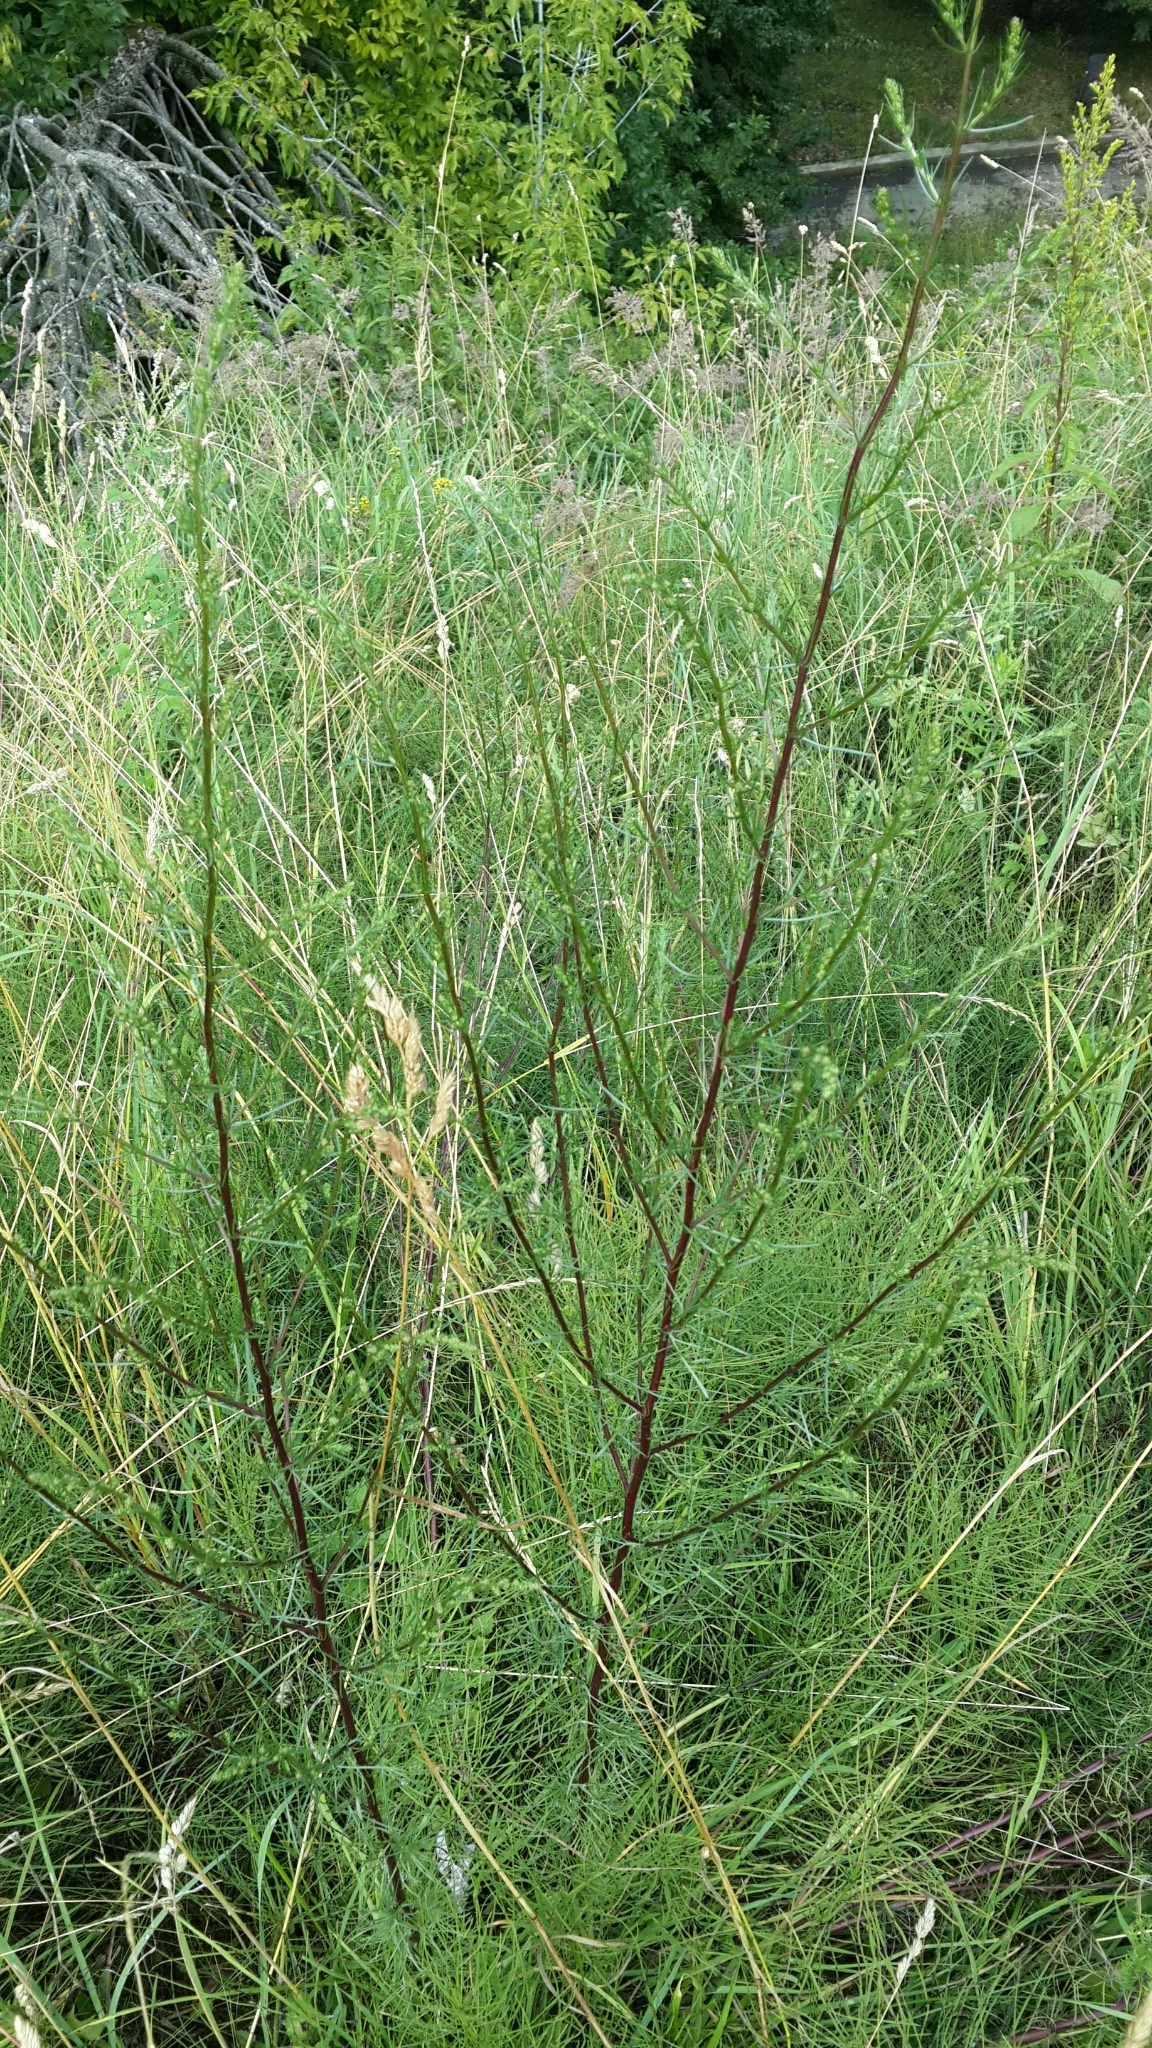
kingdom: Plantae
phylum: Tracheophyta
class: Magnoliopsida
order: Asterales
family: Asteraceae
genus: Artemisia
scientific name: Artemisia campestris
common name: Field wormwood
